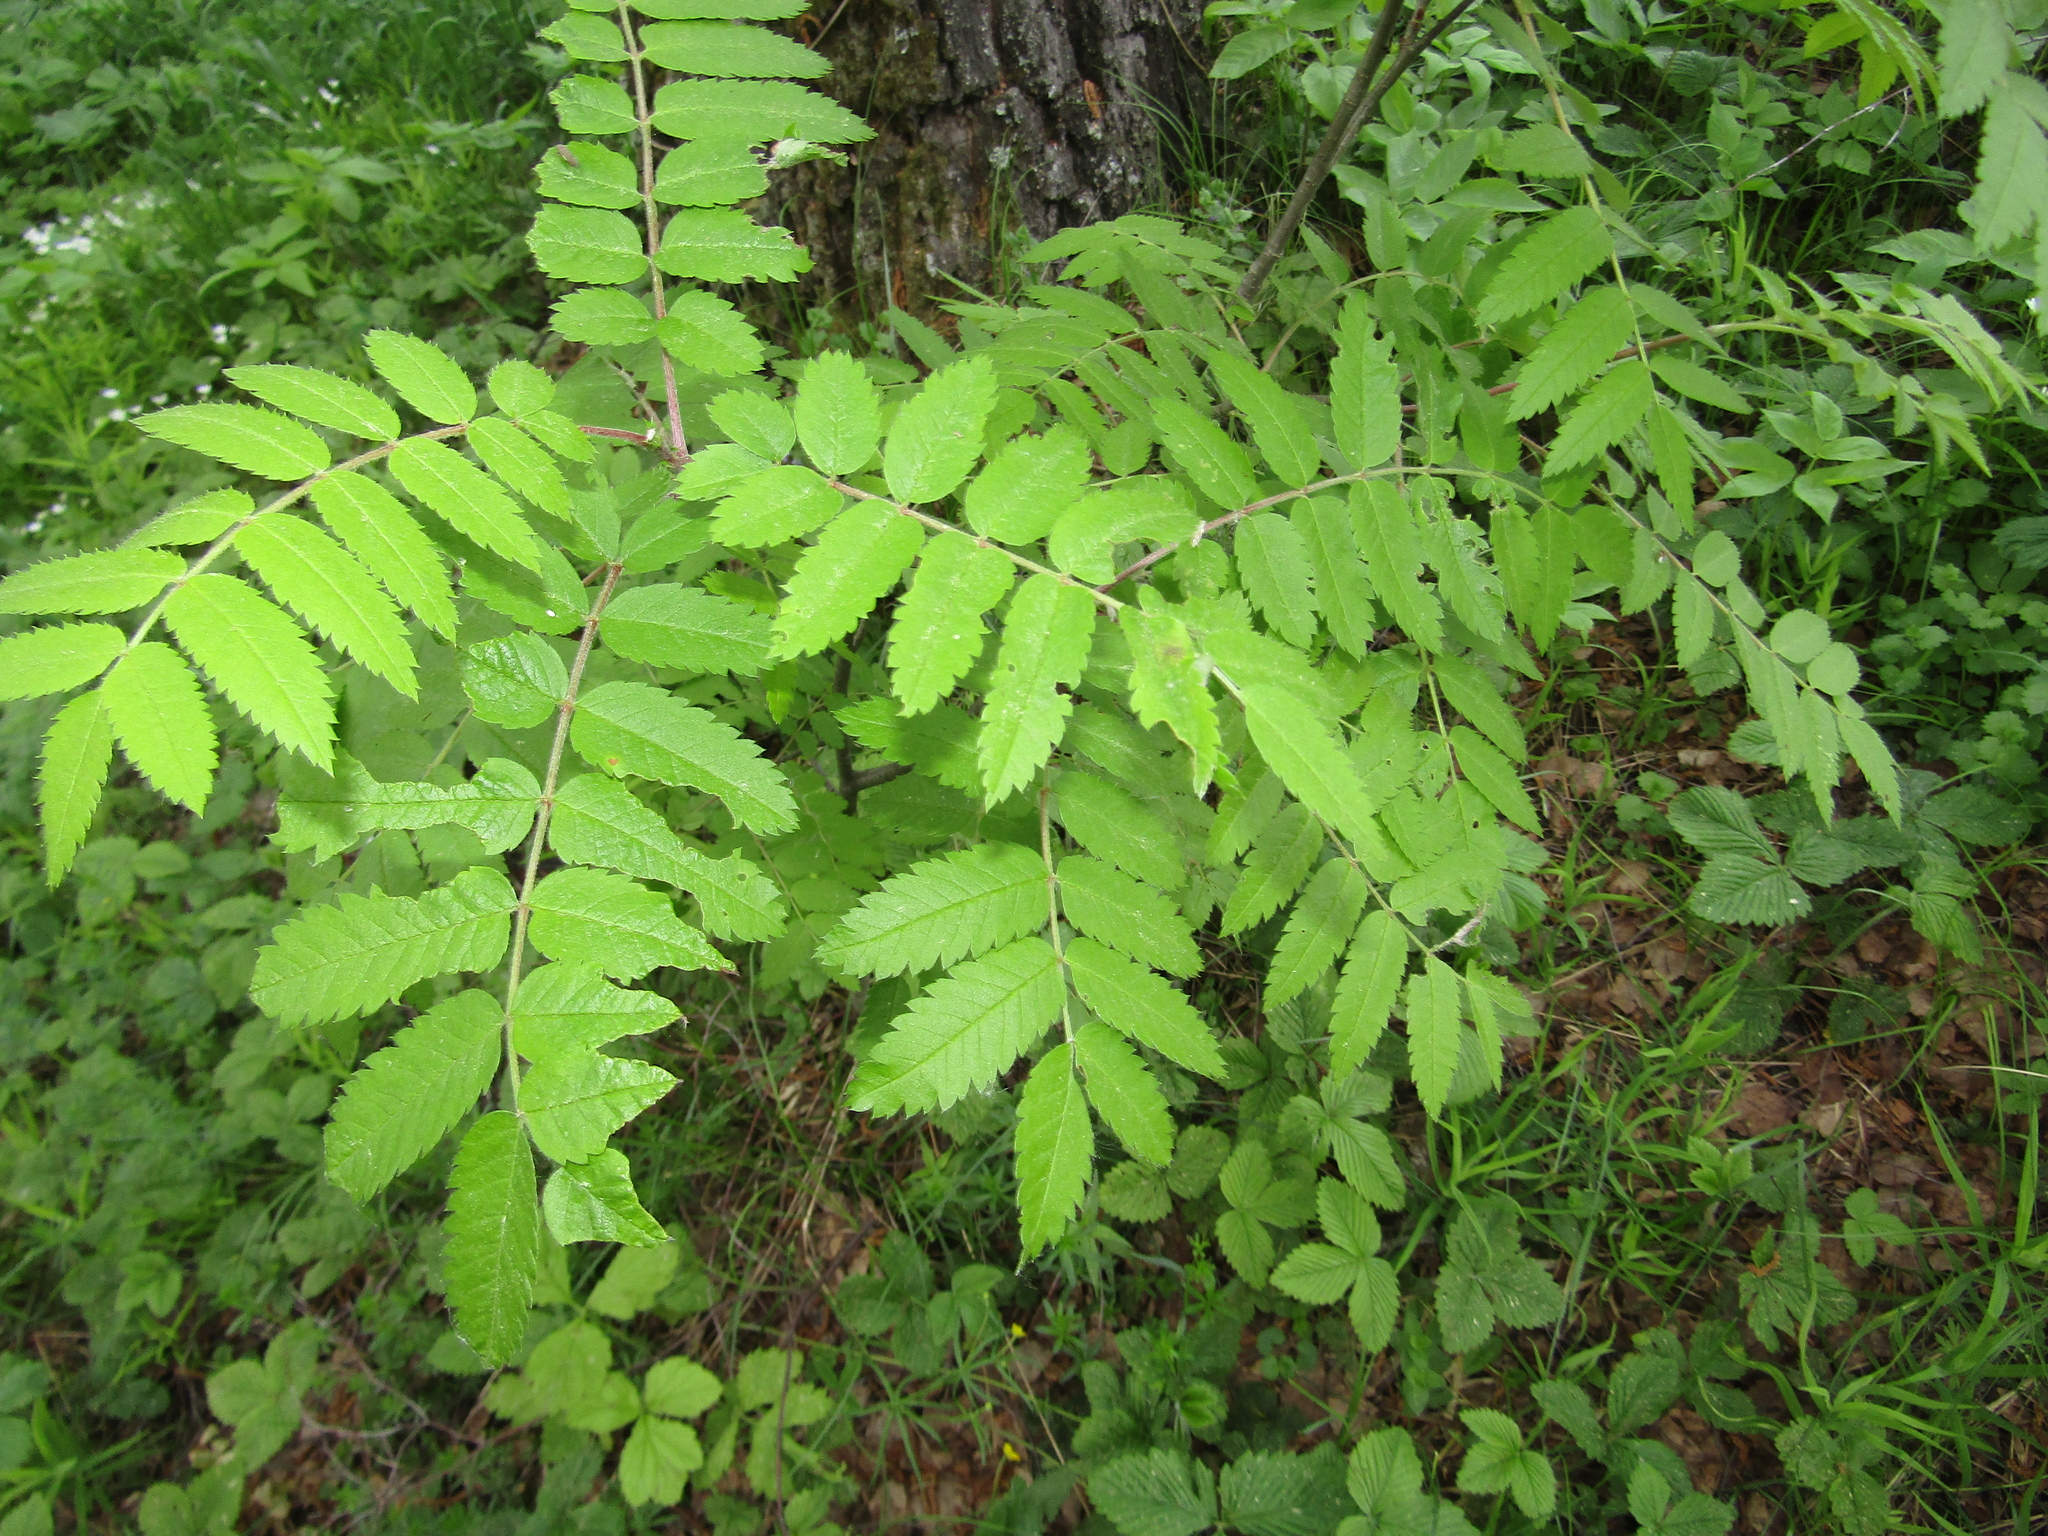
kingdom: Plantae
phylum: Tracheophyta
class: Magnoliopsida
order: Rosales
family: Rosaceae
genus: Sorbus
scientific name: Sorbus aucuparia
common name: Rowan
